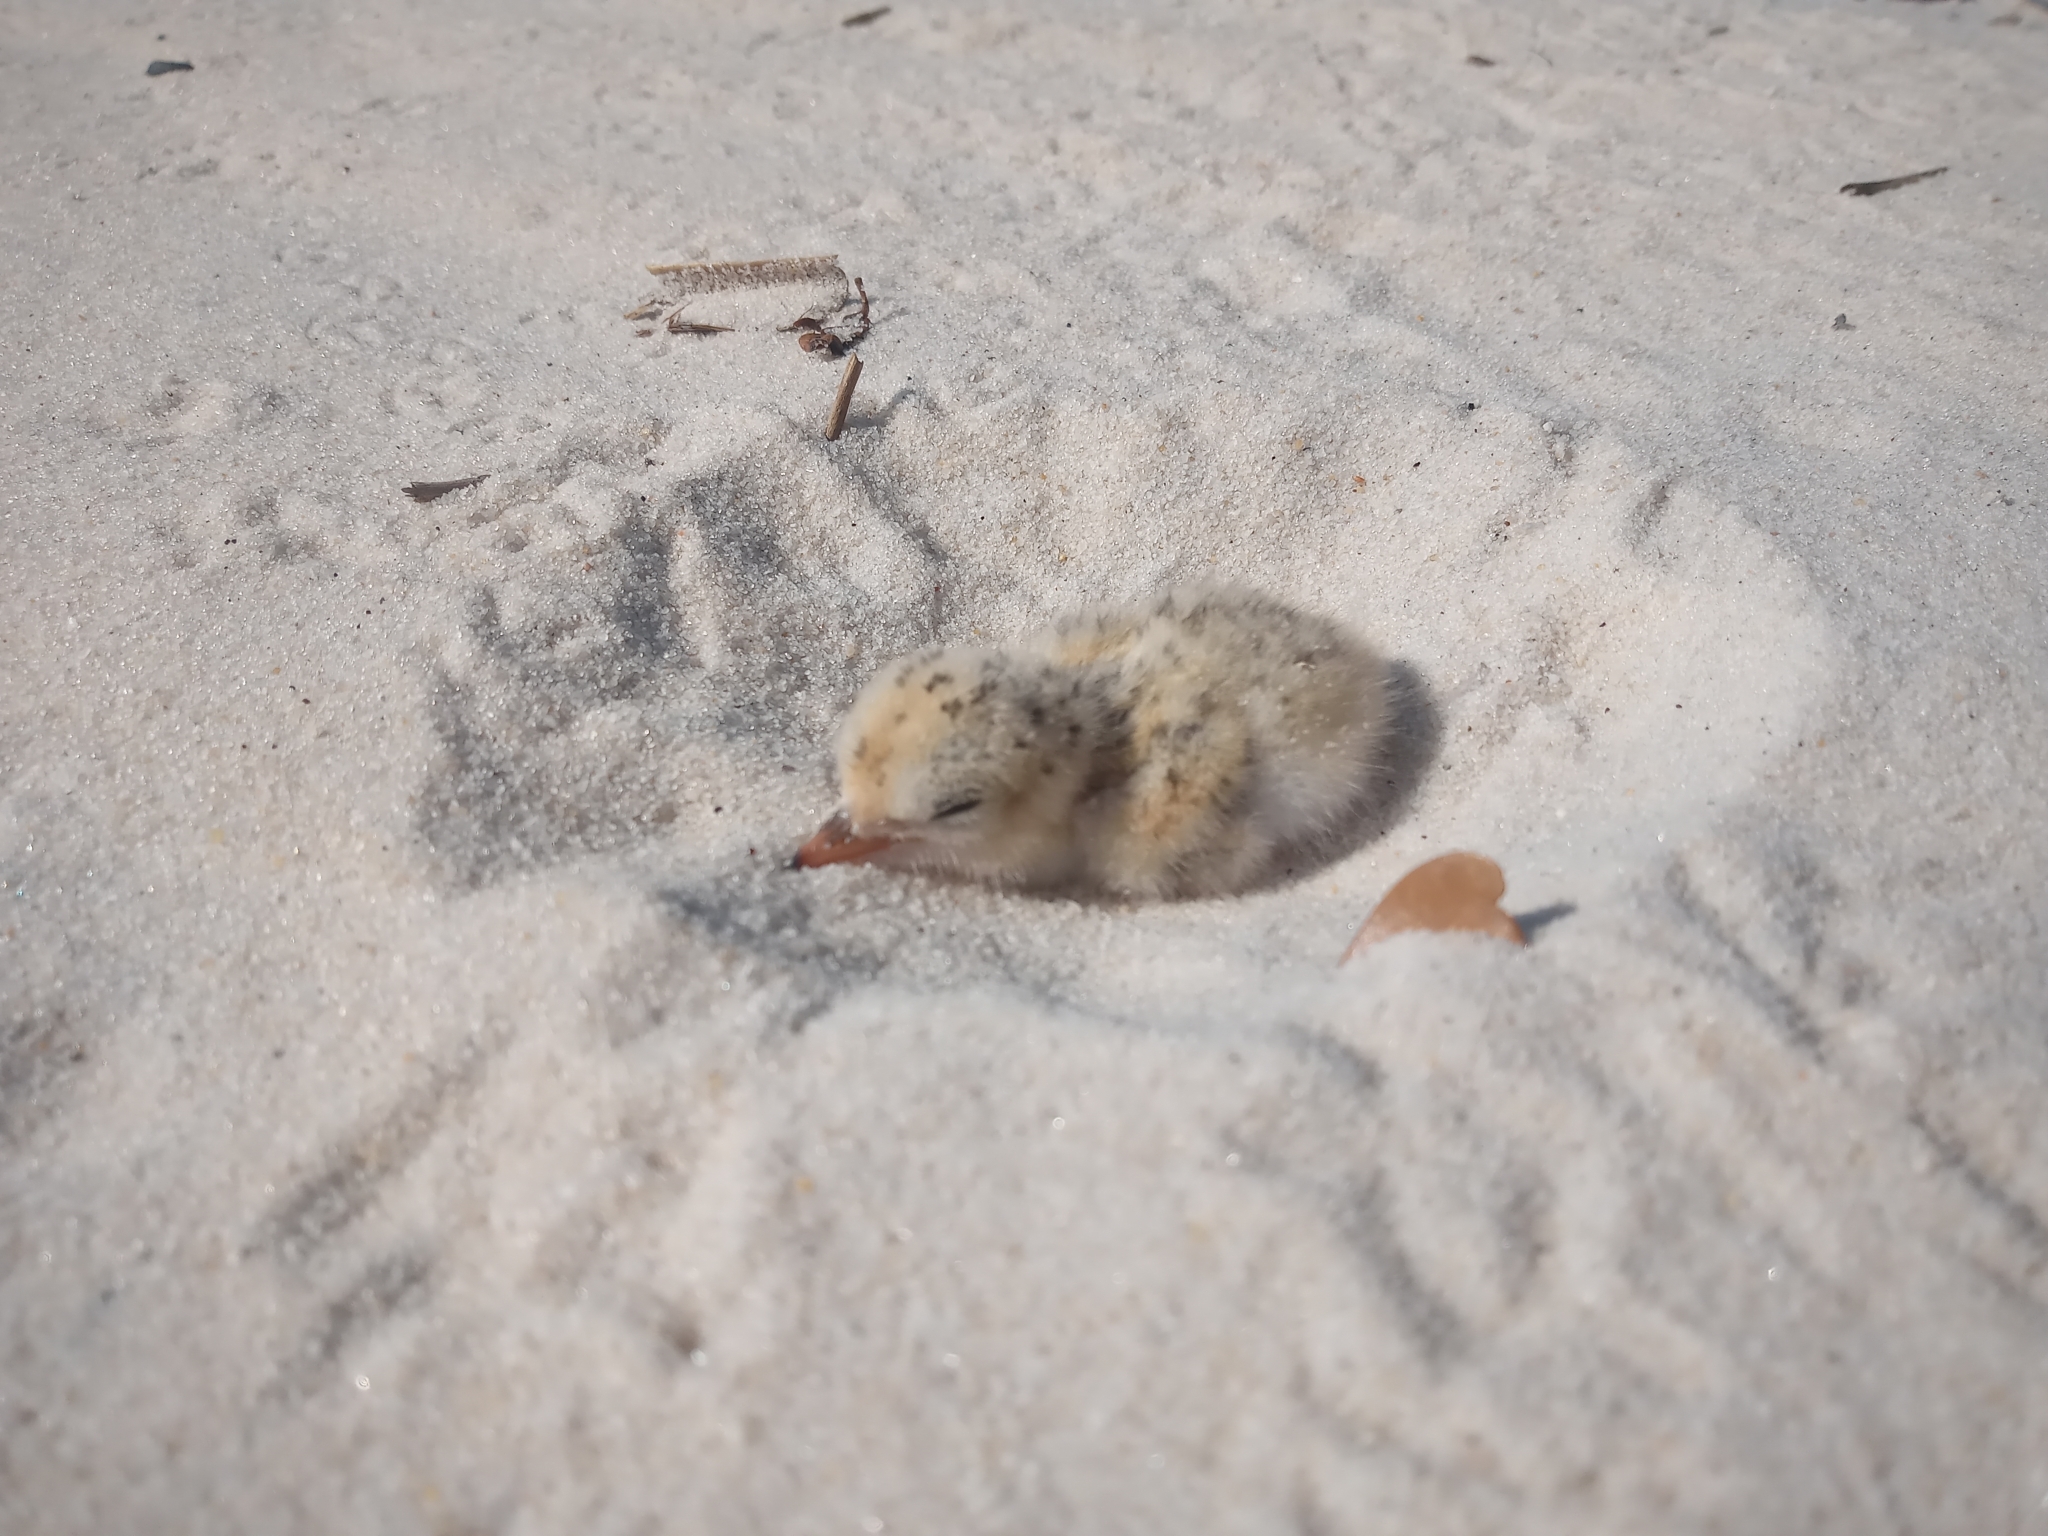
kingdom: Animalia
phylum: Chordata
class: Aves
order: Charadriiformes
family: Laridae
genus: Sternula
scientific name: Sternula antillarum
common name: Least tern
